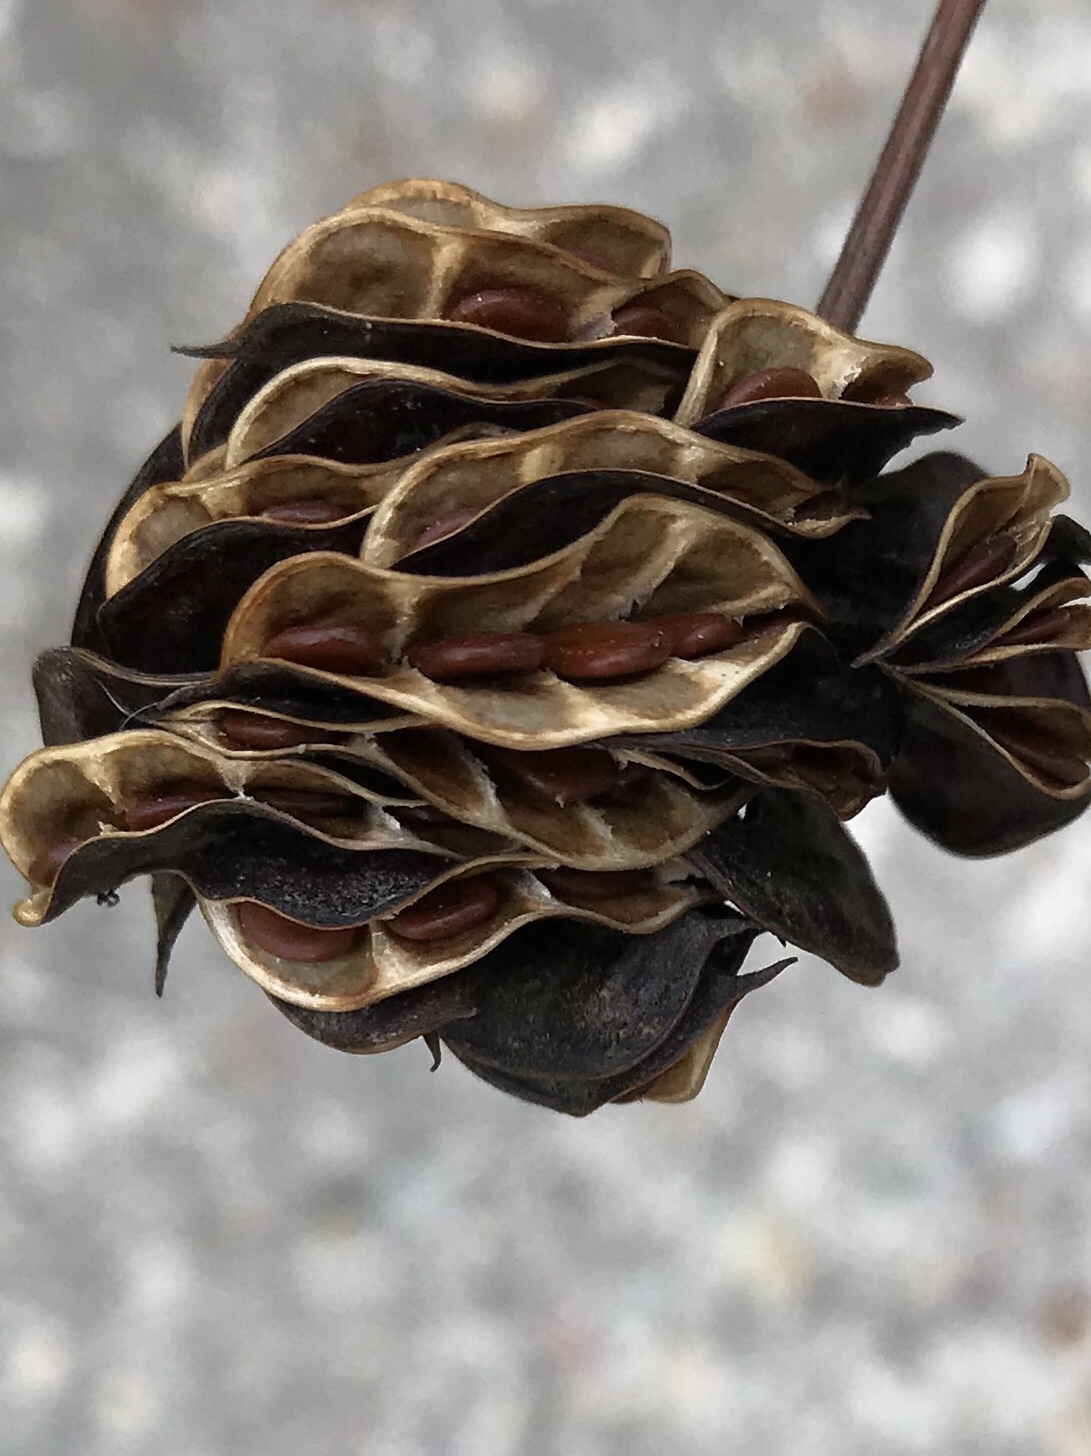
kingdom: Plantae
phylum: Tracheophyta
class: Magnoliopsida
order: Fabales
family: Fabaceae
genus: Desmanthus
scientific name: Desmanthus illinoensis
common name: Illinois bundle-flower
